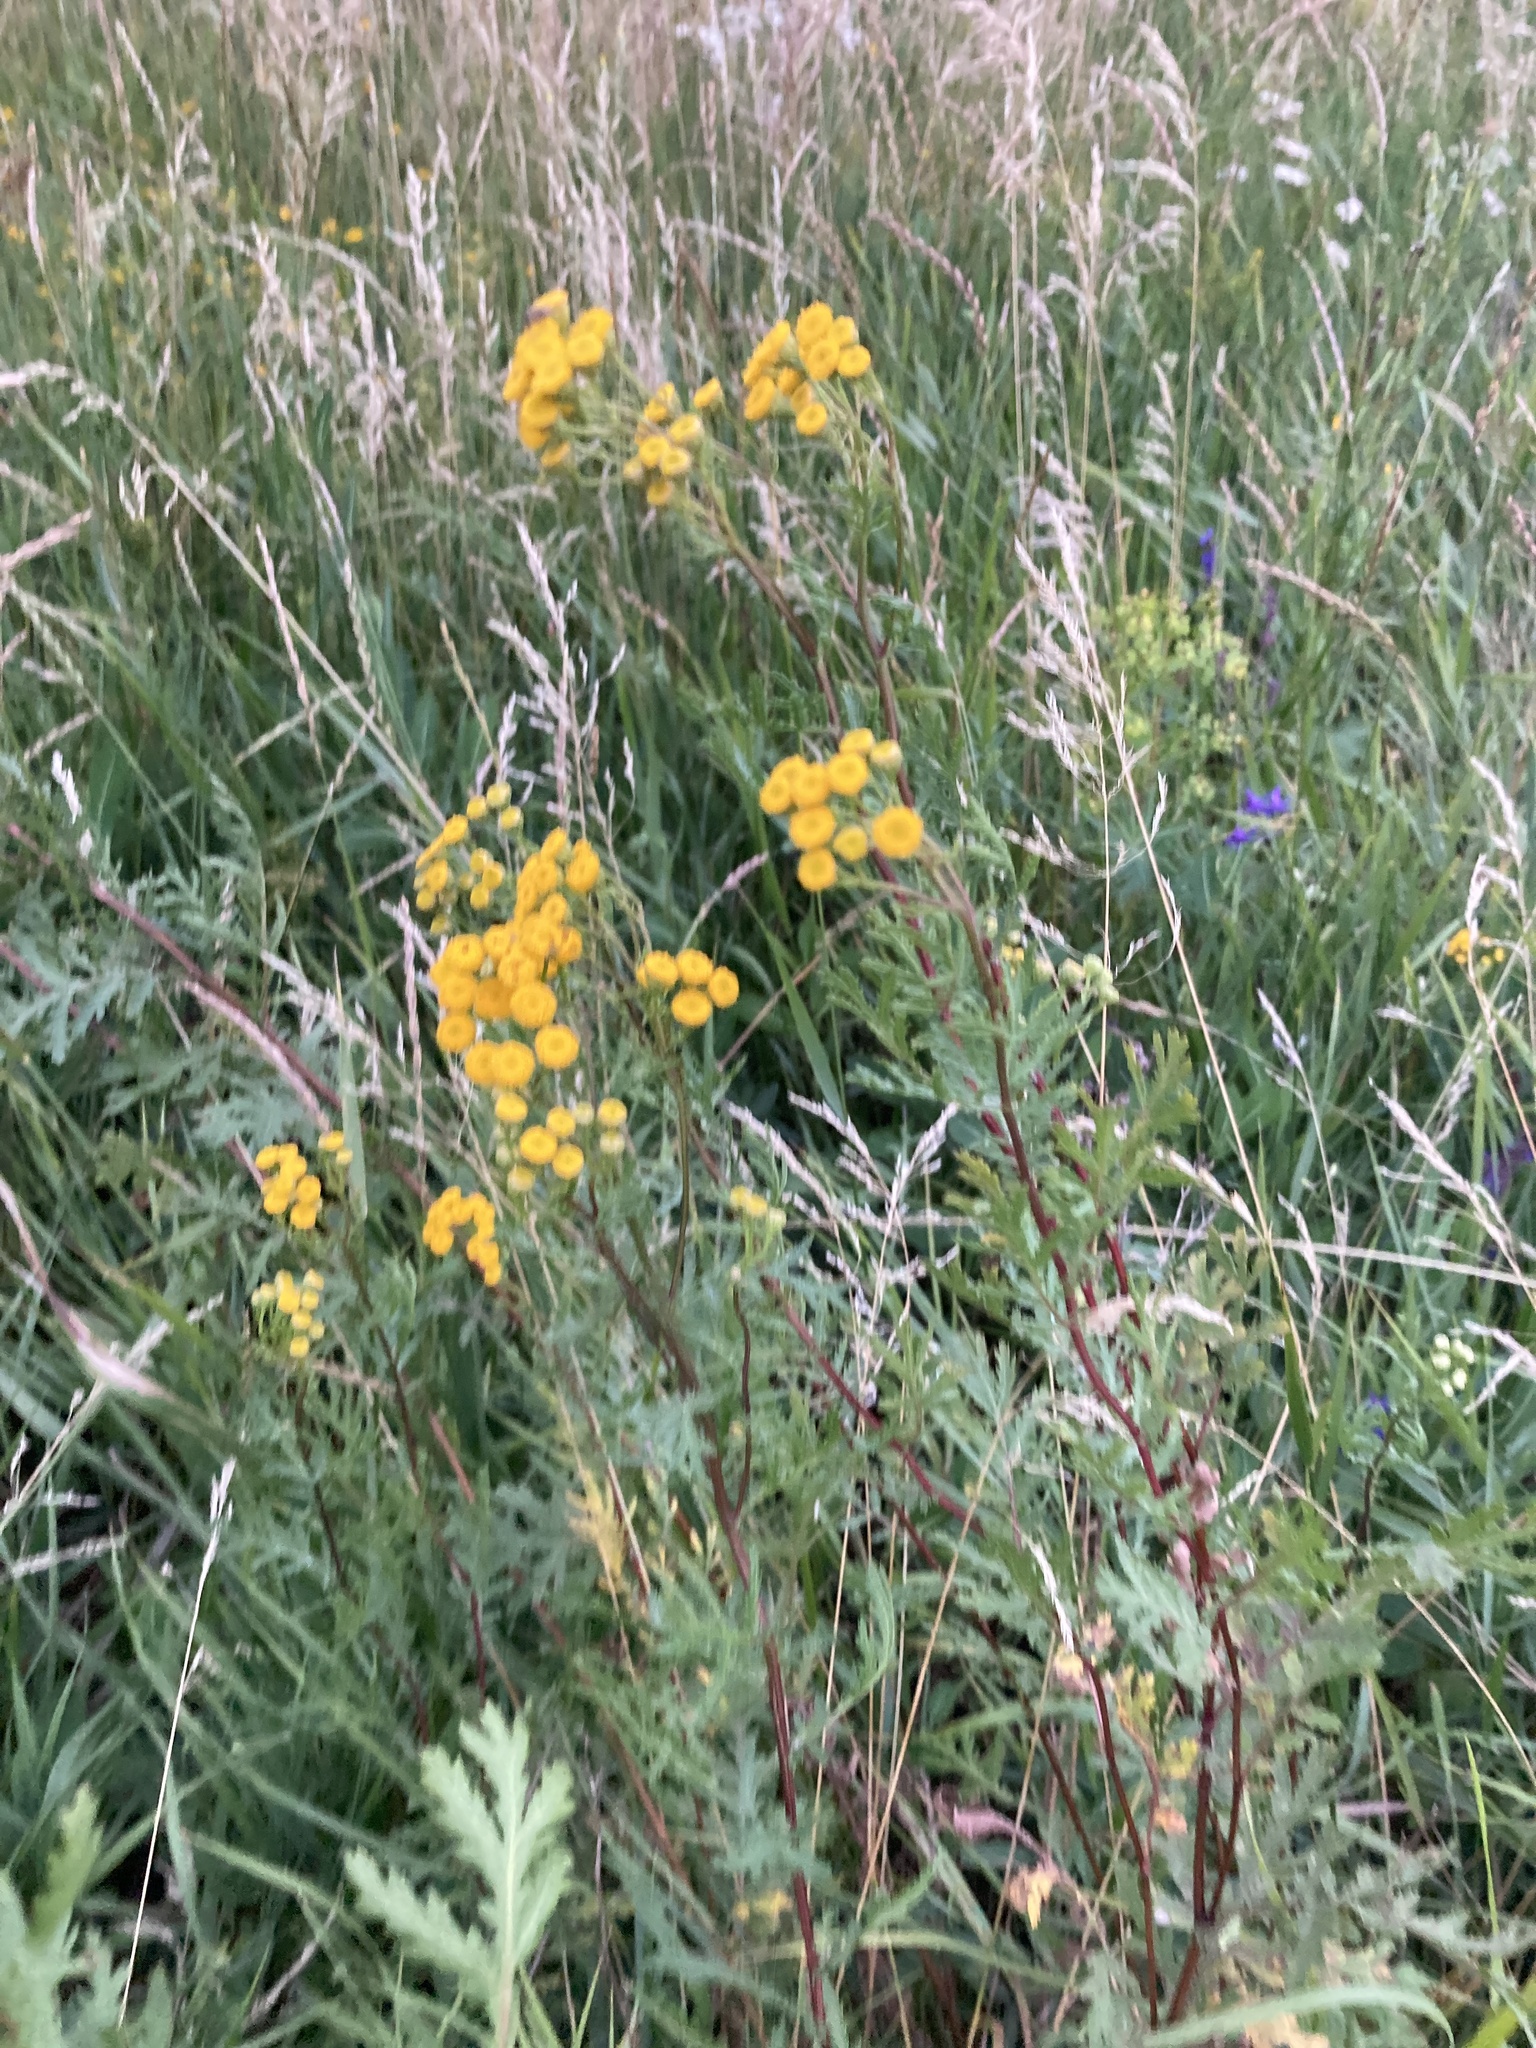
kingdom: Plantae
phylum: Tracheophyta
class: Magnoliopsida
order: Asterales
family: Asteraceae
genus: Tanacetum
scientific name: Tanacetum vulgare
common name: Common tansy
